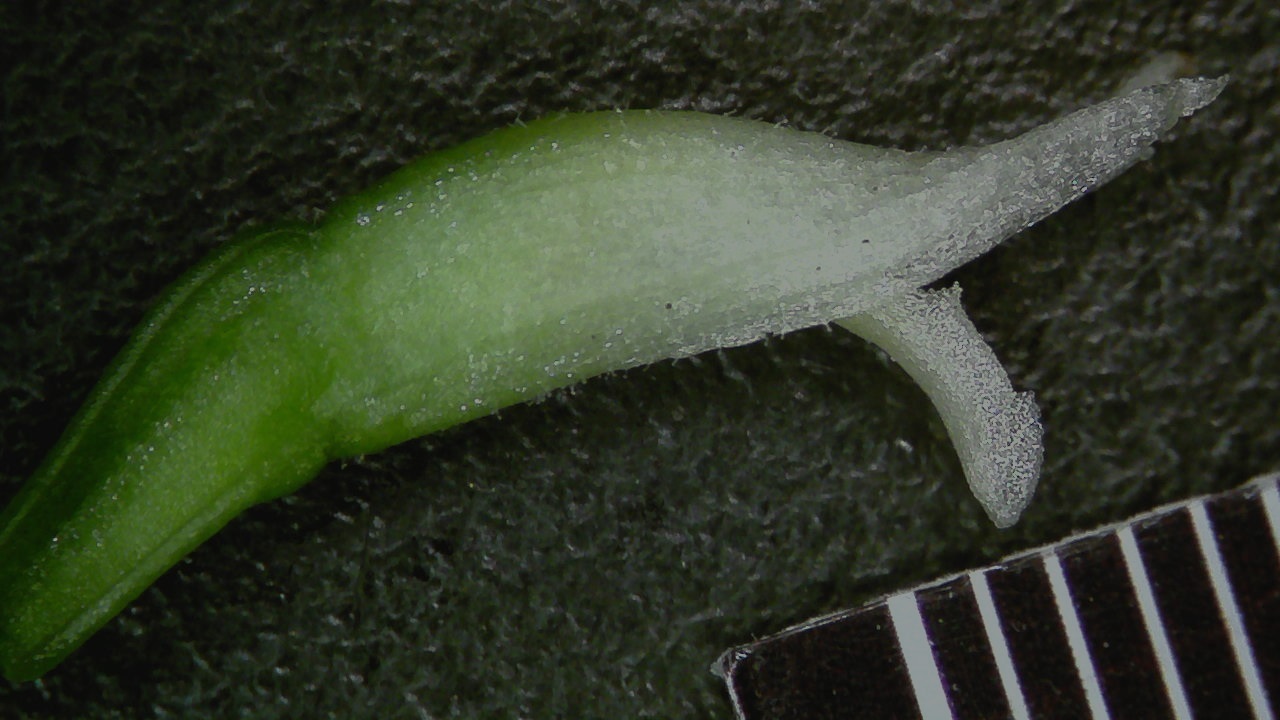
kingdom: Plantae
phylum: Tracheophyta
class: Liliopsida
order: Asparagales
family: Orchidaceae
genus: Spiranthes
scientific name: Spiranthes romanzoffiana
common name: Irish lady's-tresses
